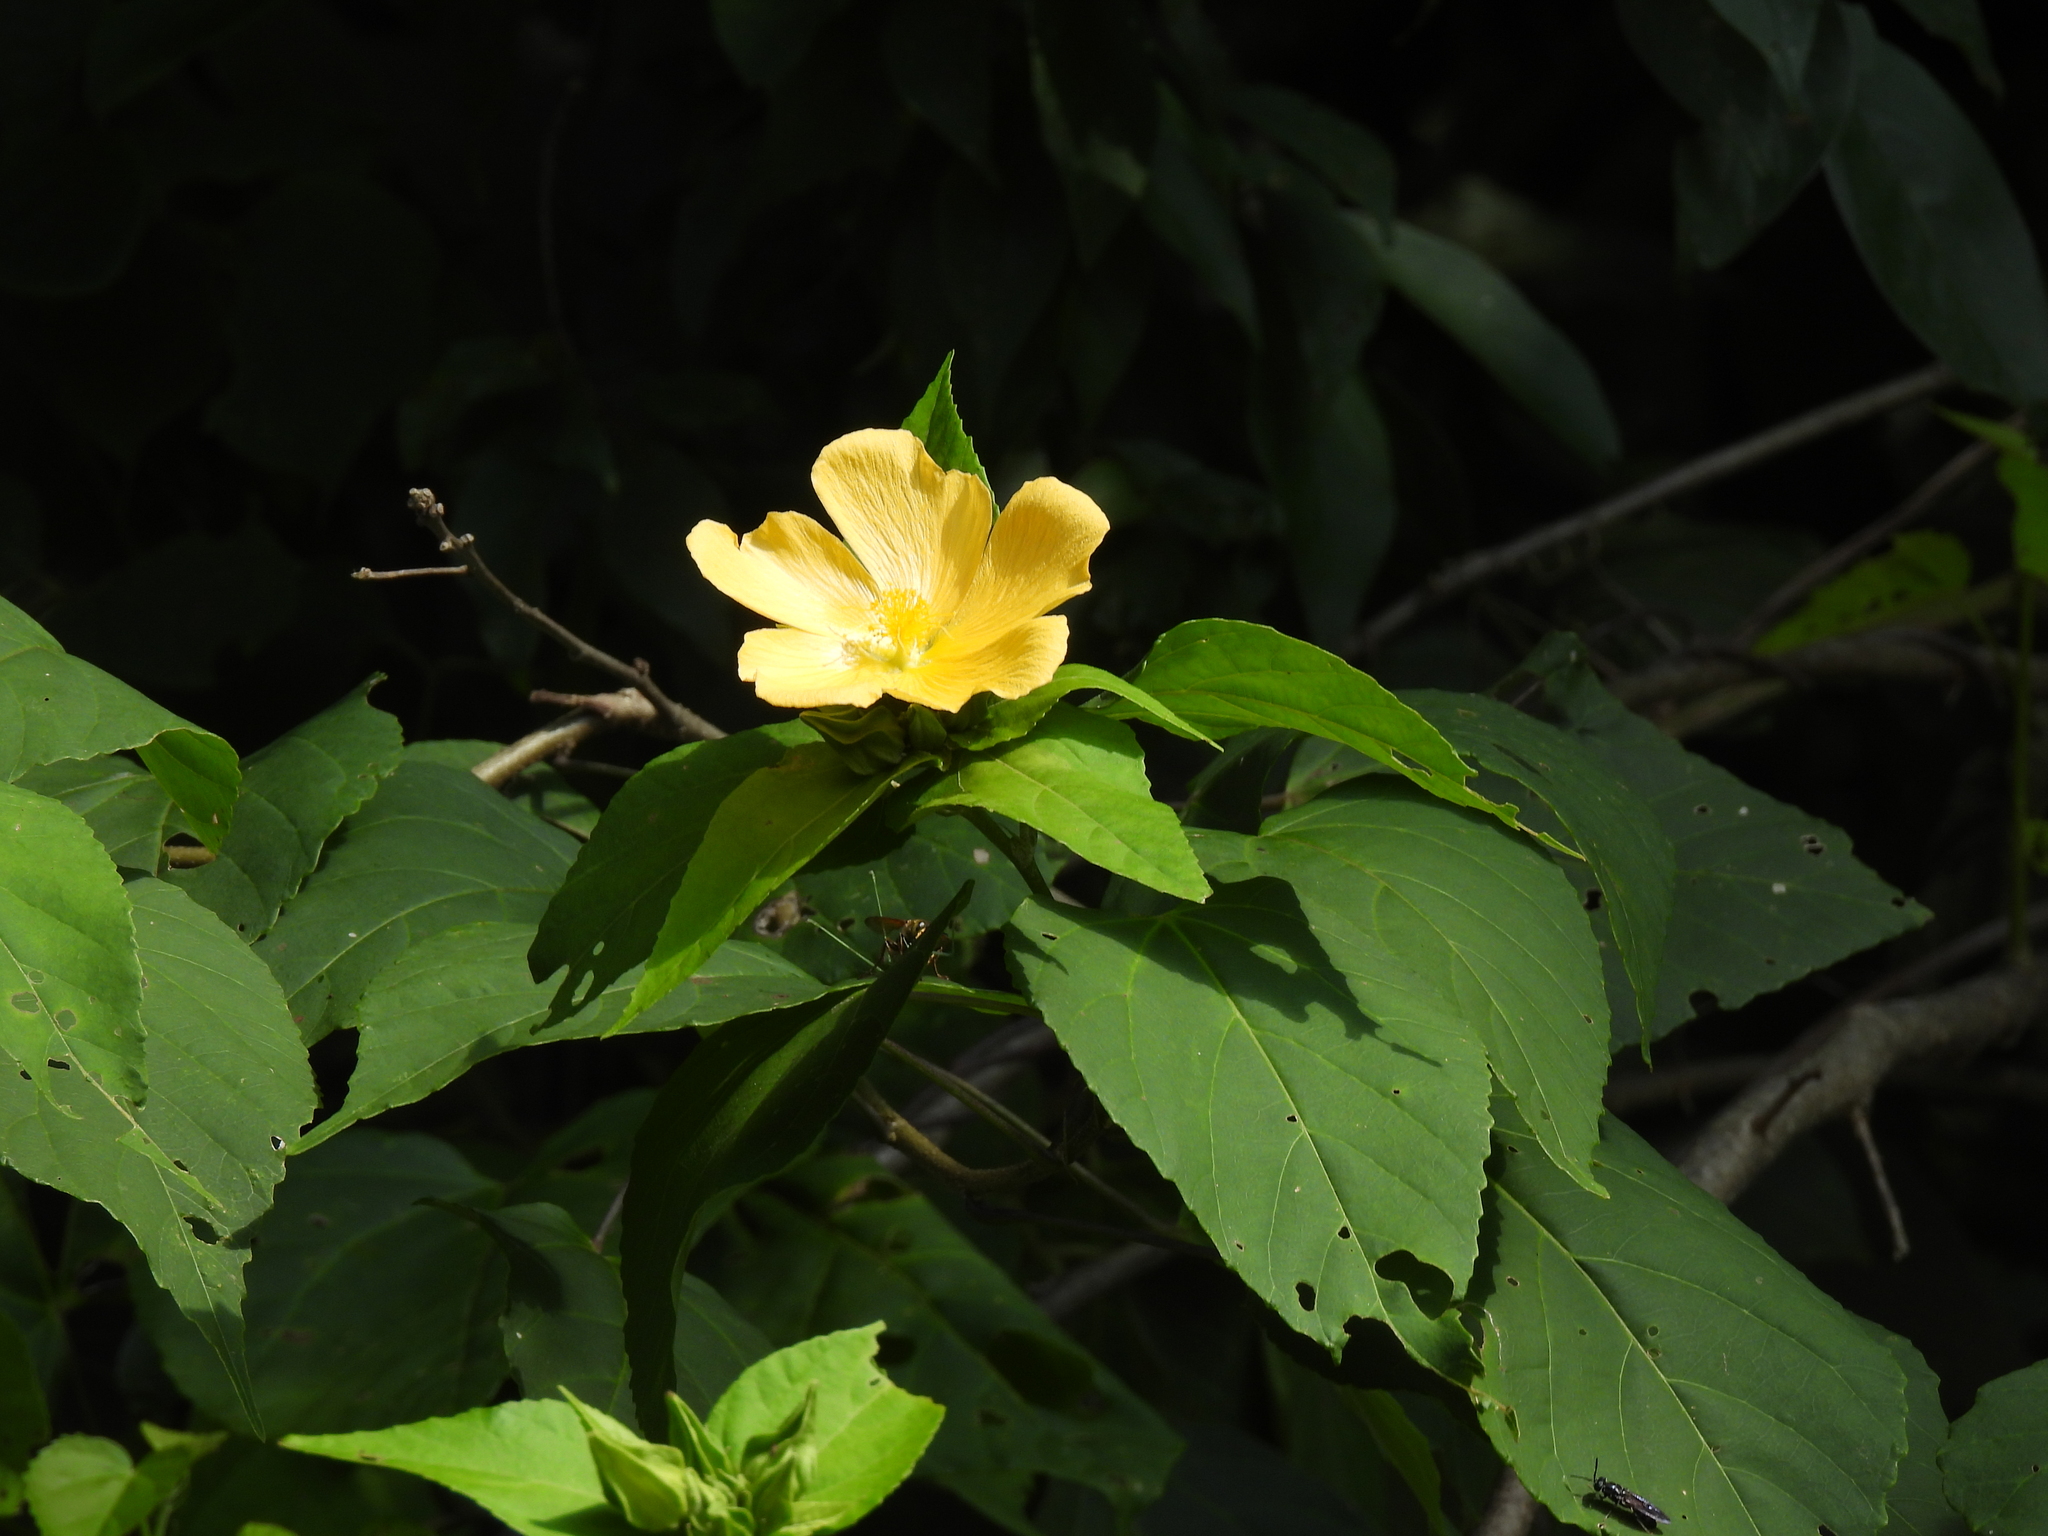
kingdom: Plantae
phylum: Tracheophyta
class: Magnoliopsida
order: Malvales
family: Malvaceae
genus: Dendrosida
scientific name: Dendrosida sharpiana
